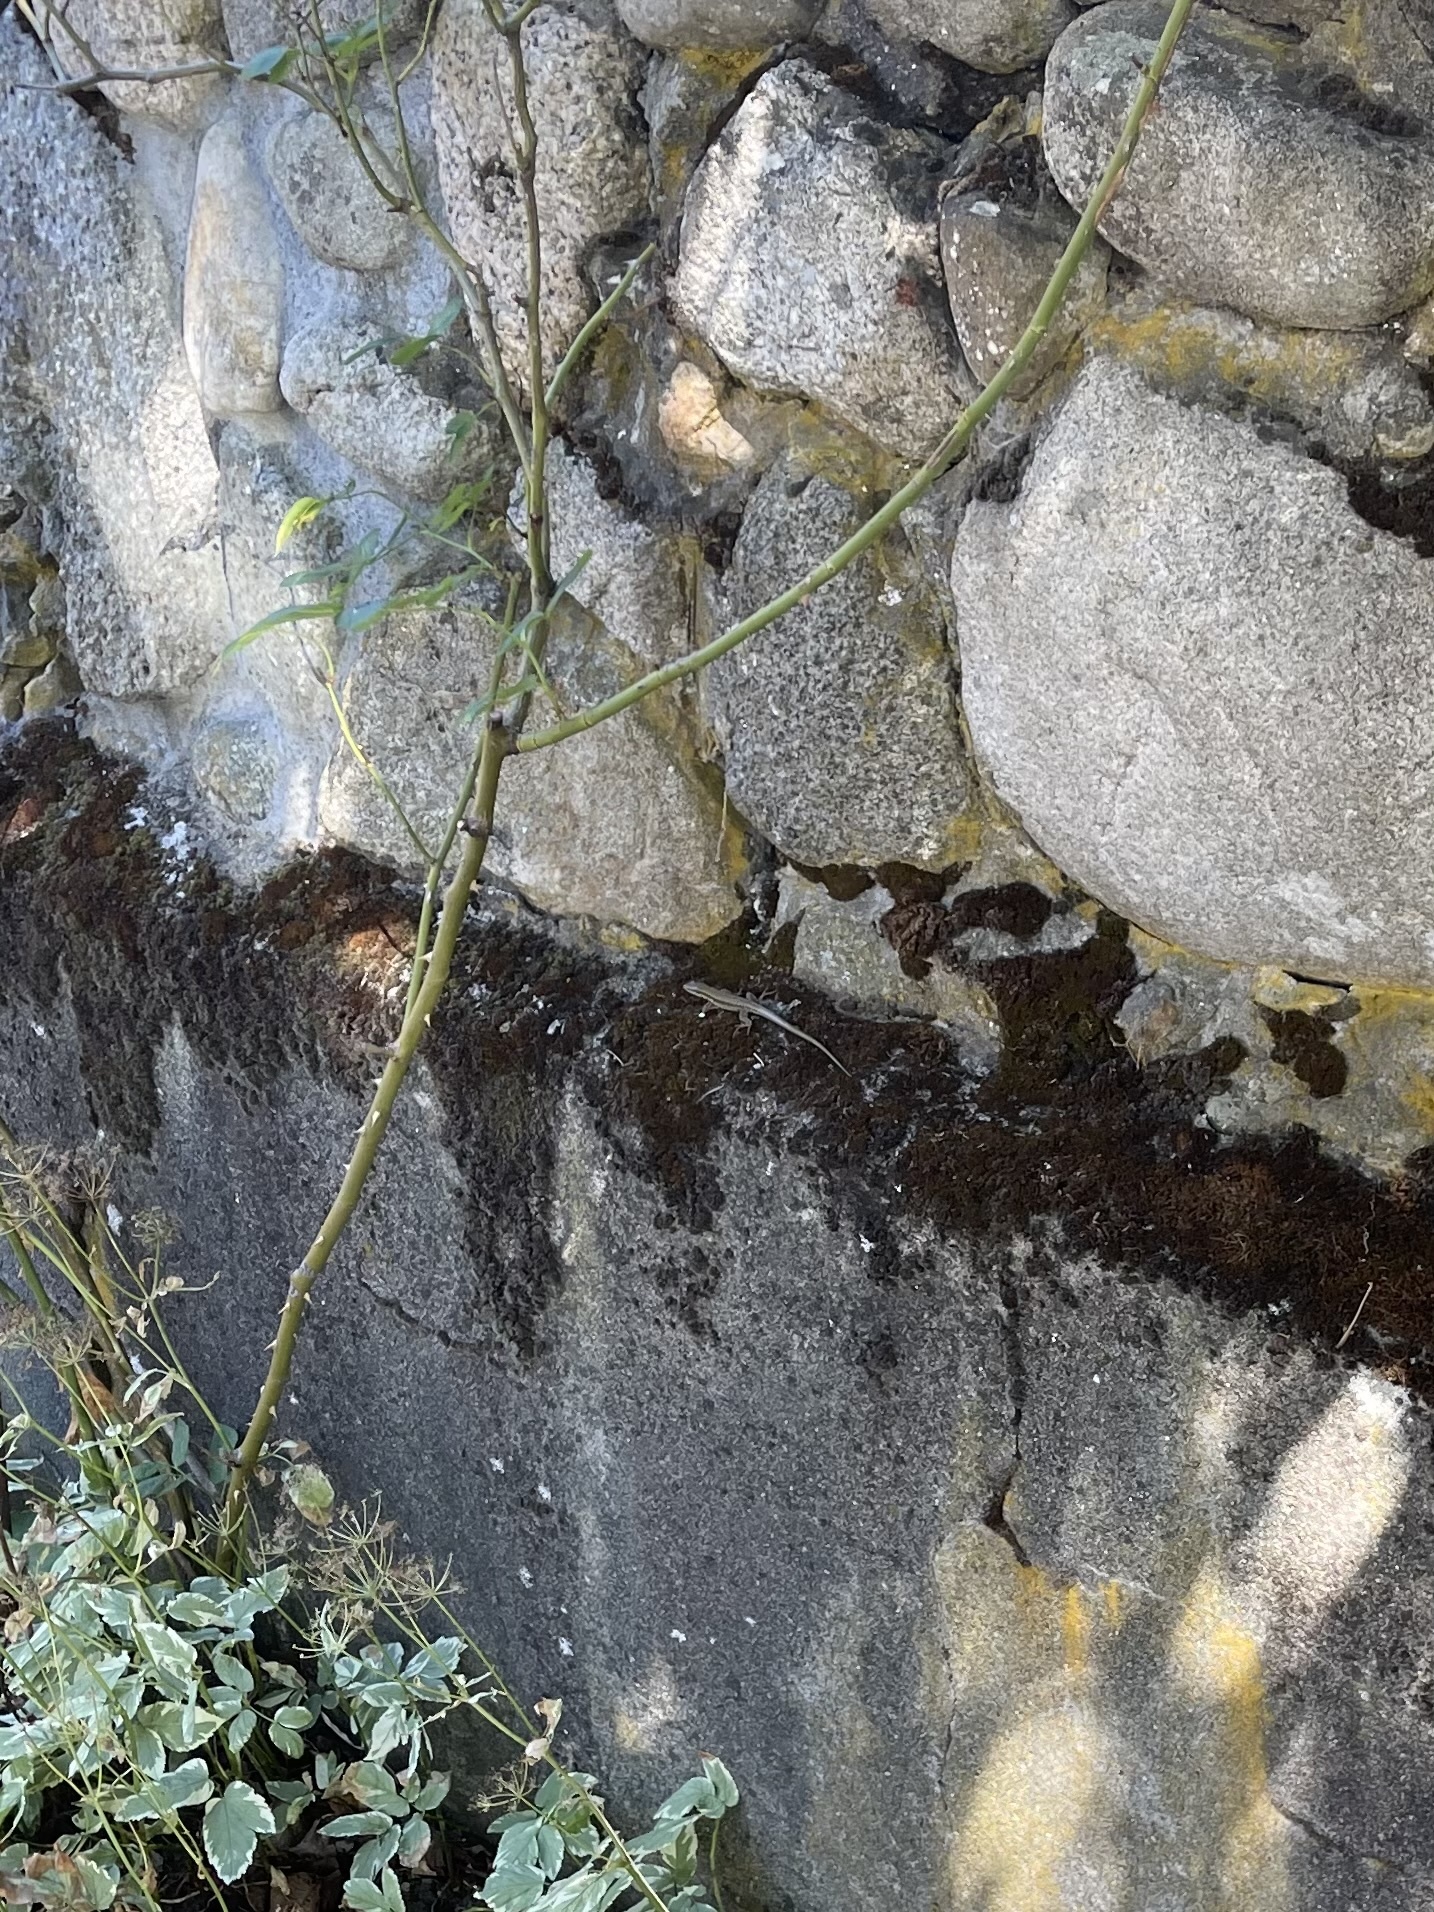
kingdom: Animalia
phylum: Chordata
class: Squamata
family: Lacertidae
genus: Podarcis
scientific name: Podarcis muralis
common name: Common wall lizard
